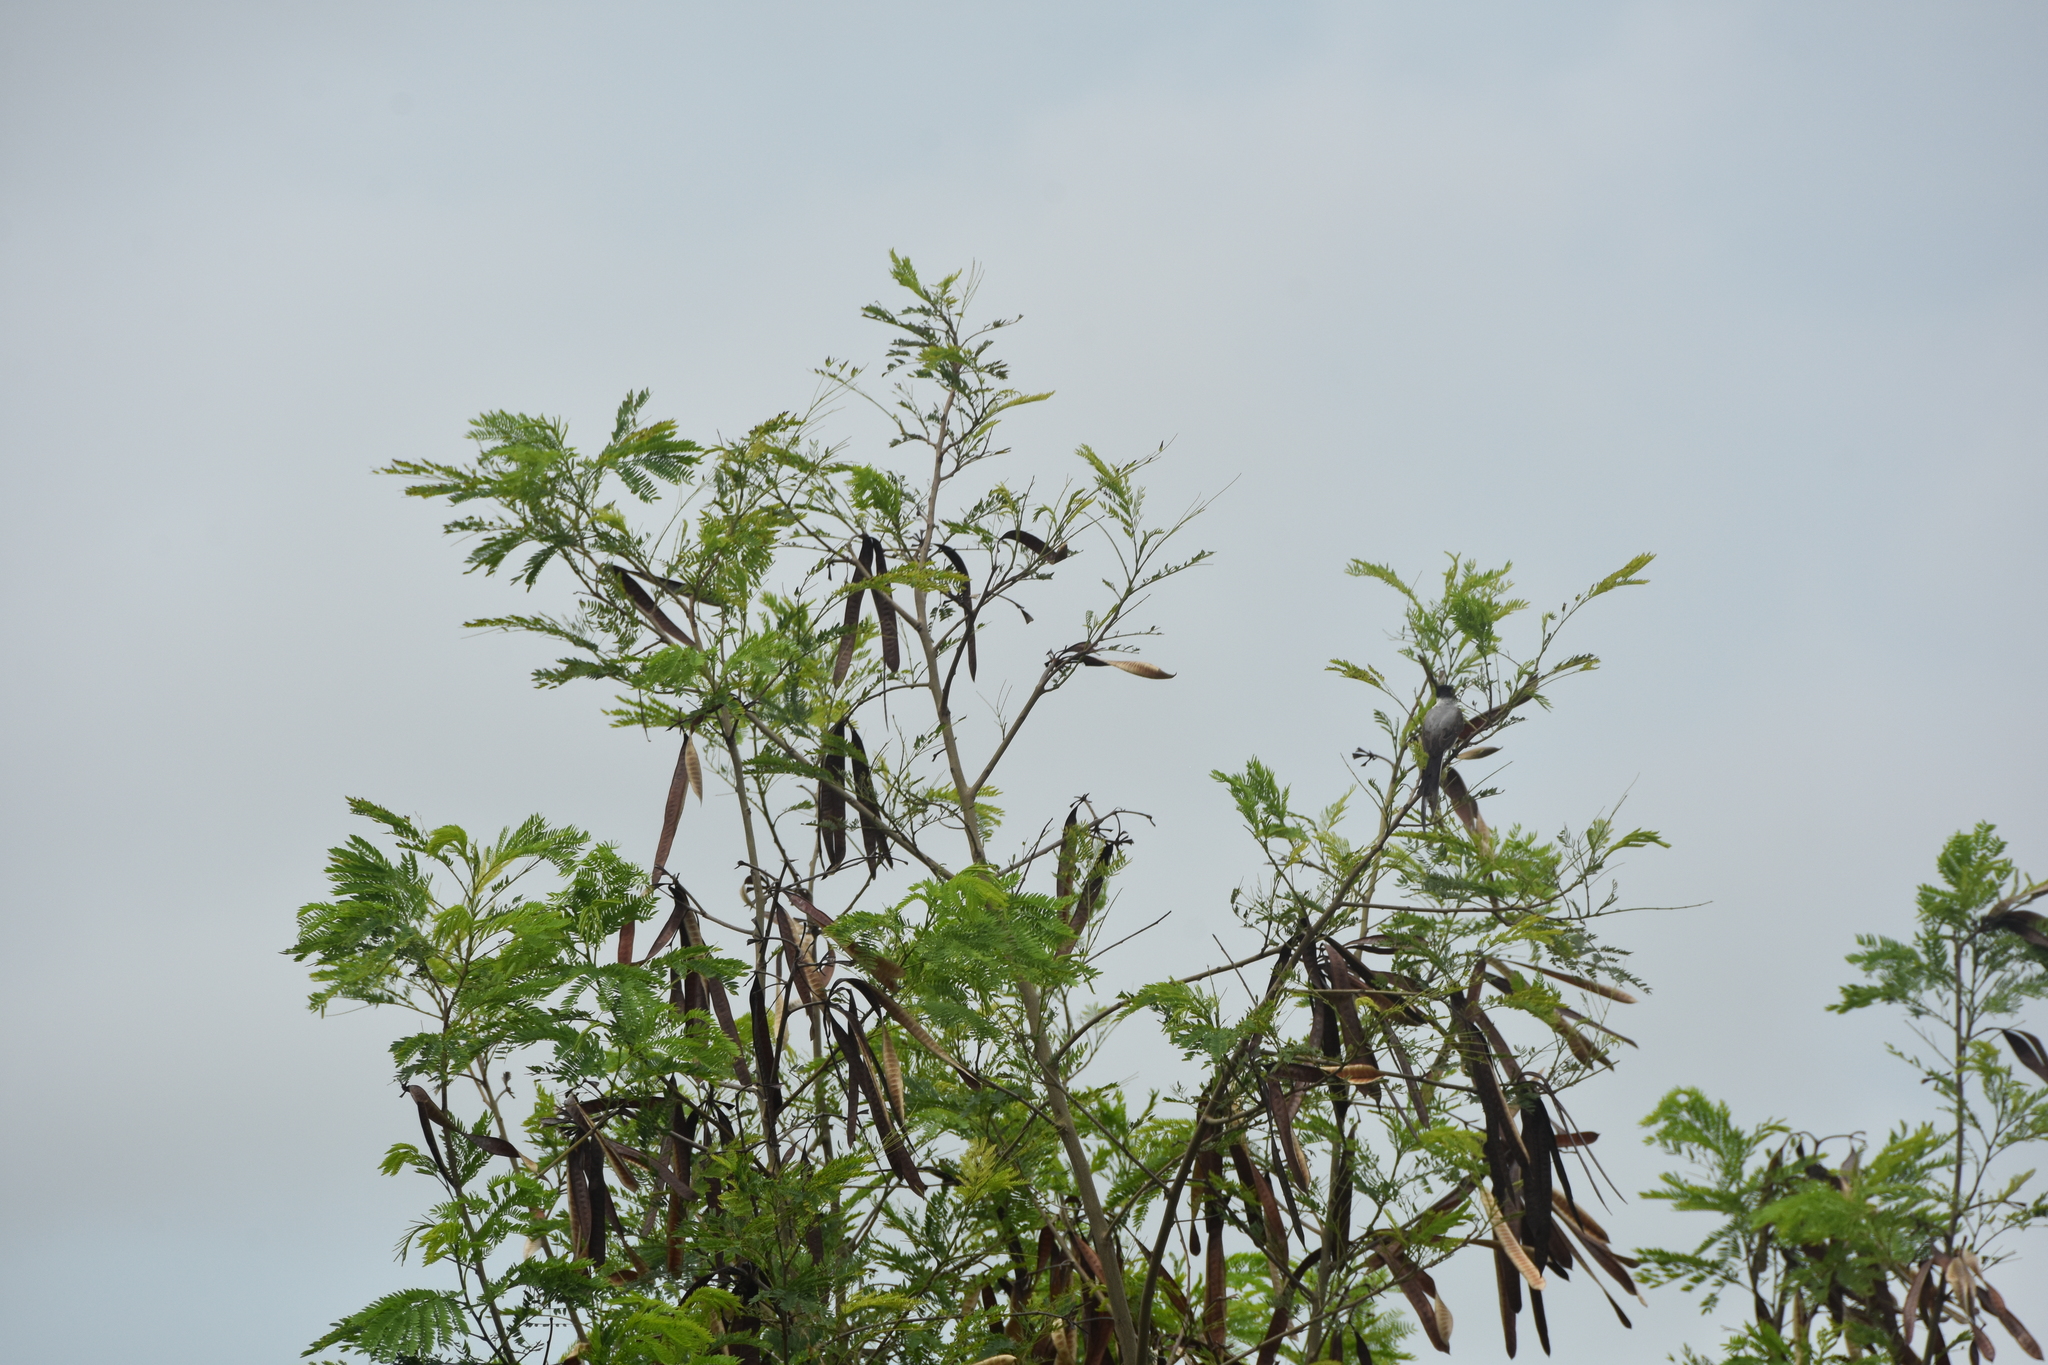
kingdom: Animalia
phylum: Chordata
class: Aves
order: Passeriformes
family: Tyrannidae
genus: Tyrannus
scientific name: Tyrannus savana
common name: Fork-tailed flycatcher
